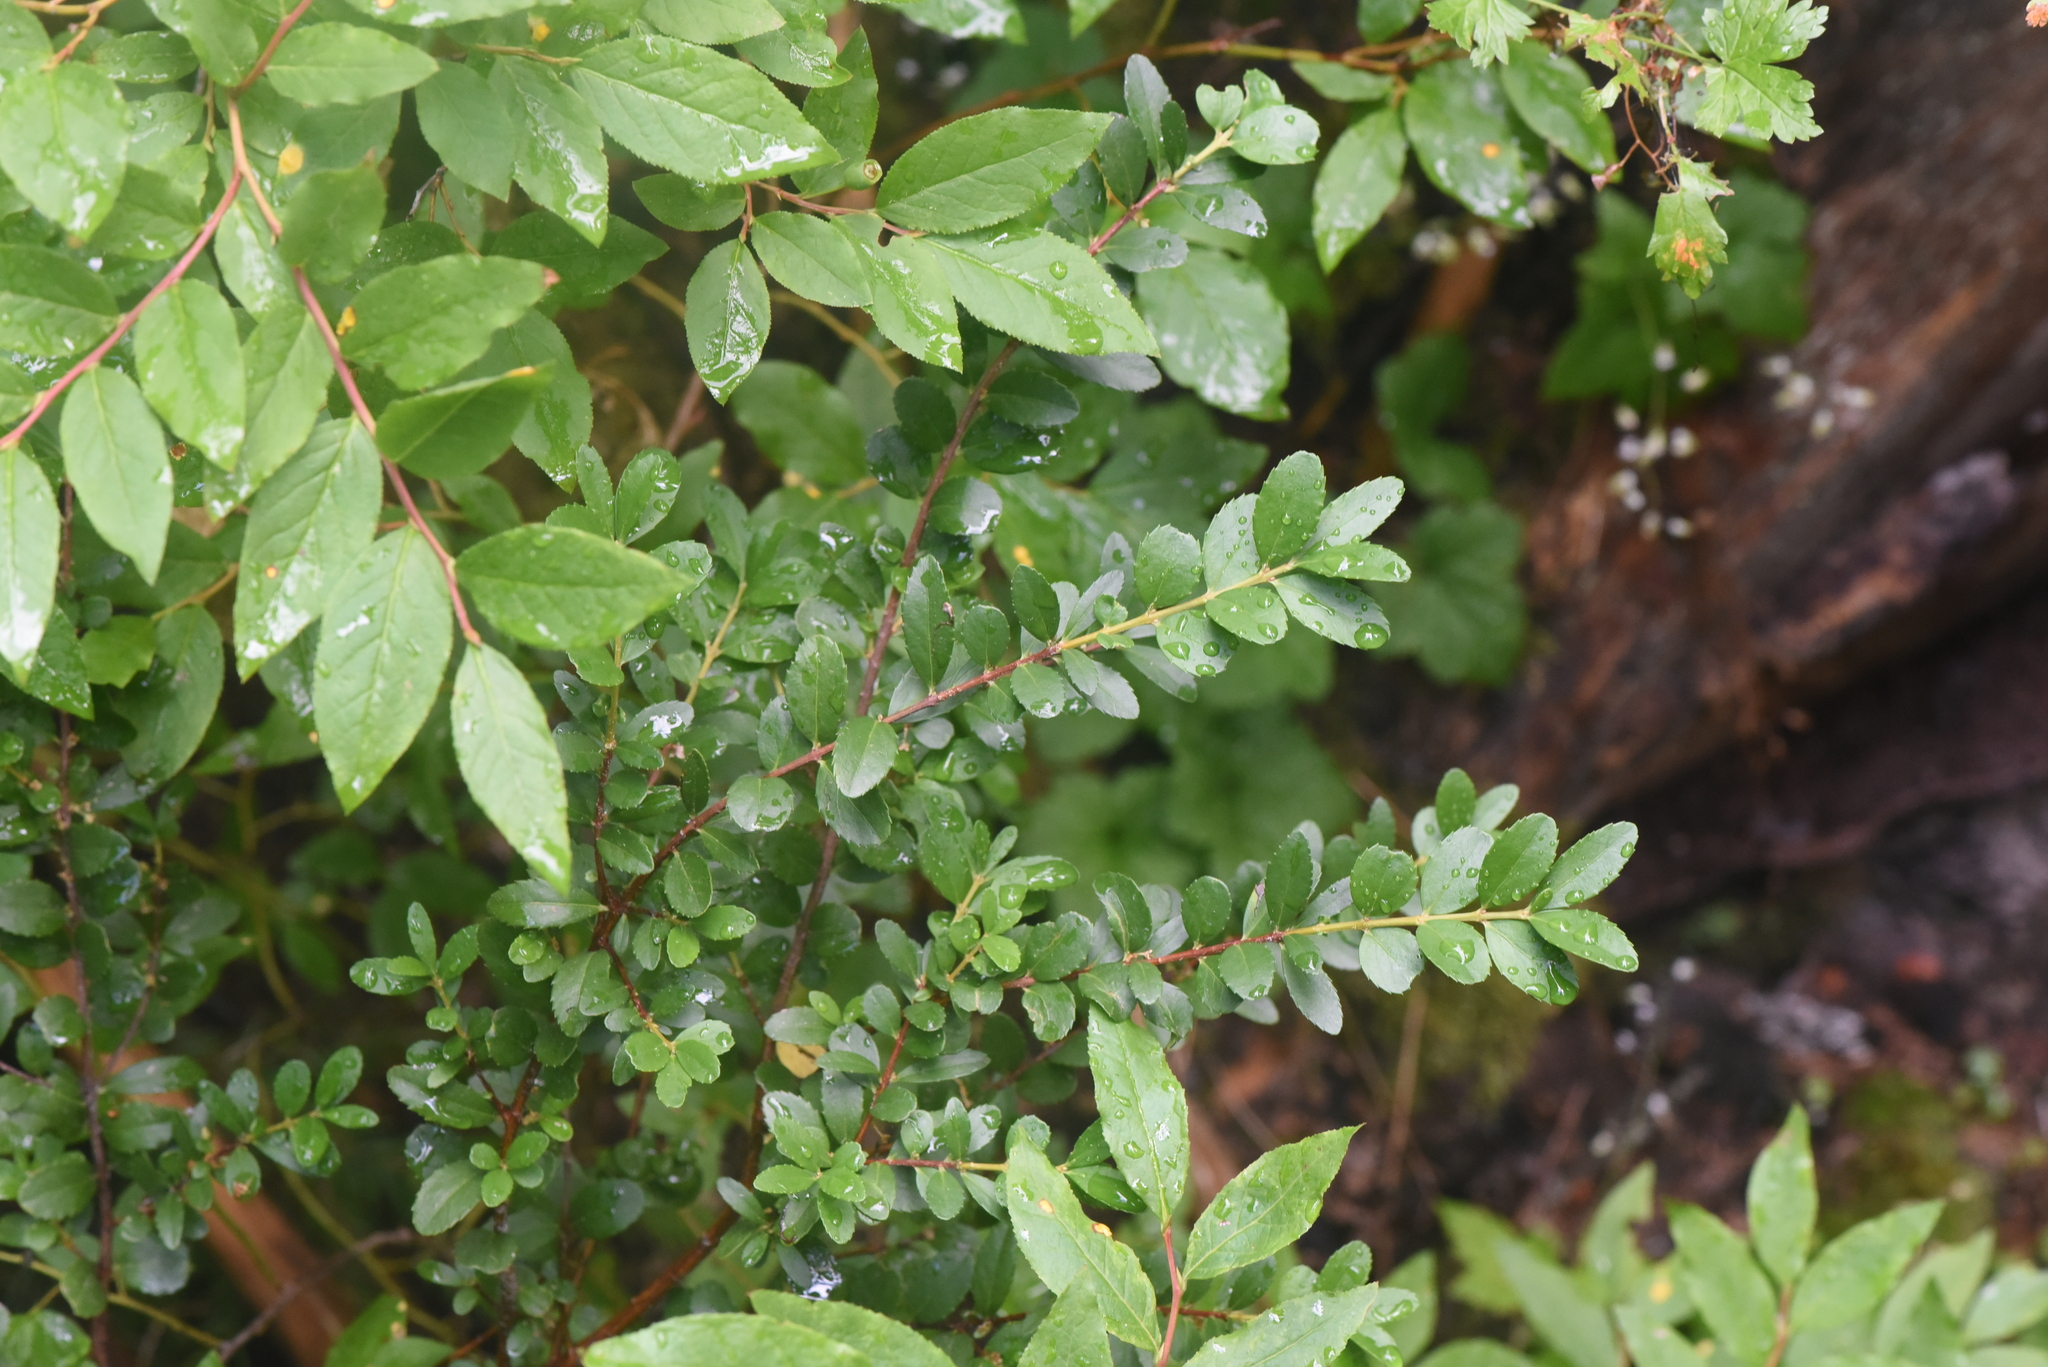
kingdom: Plantae
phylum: Tracheophyta
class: Magnoliopsida
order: Celastrales
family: Celastraceae
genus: Paxistima
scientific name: Paxistima myrsinites
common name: Mountain-lover
